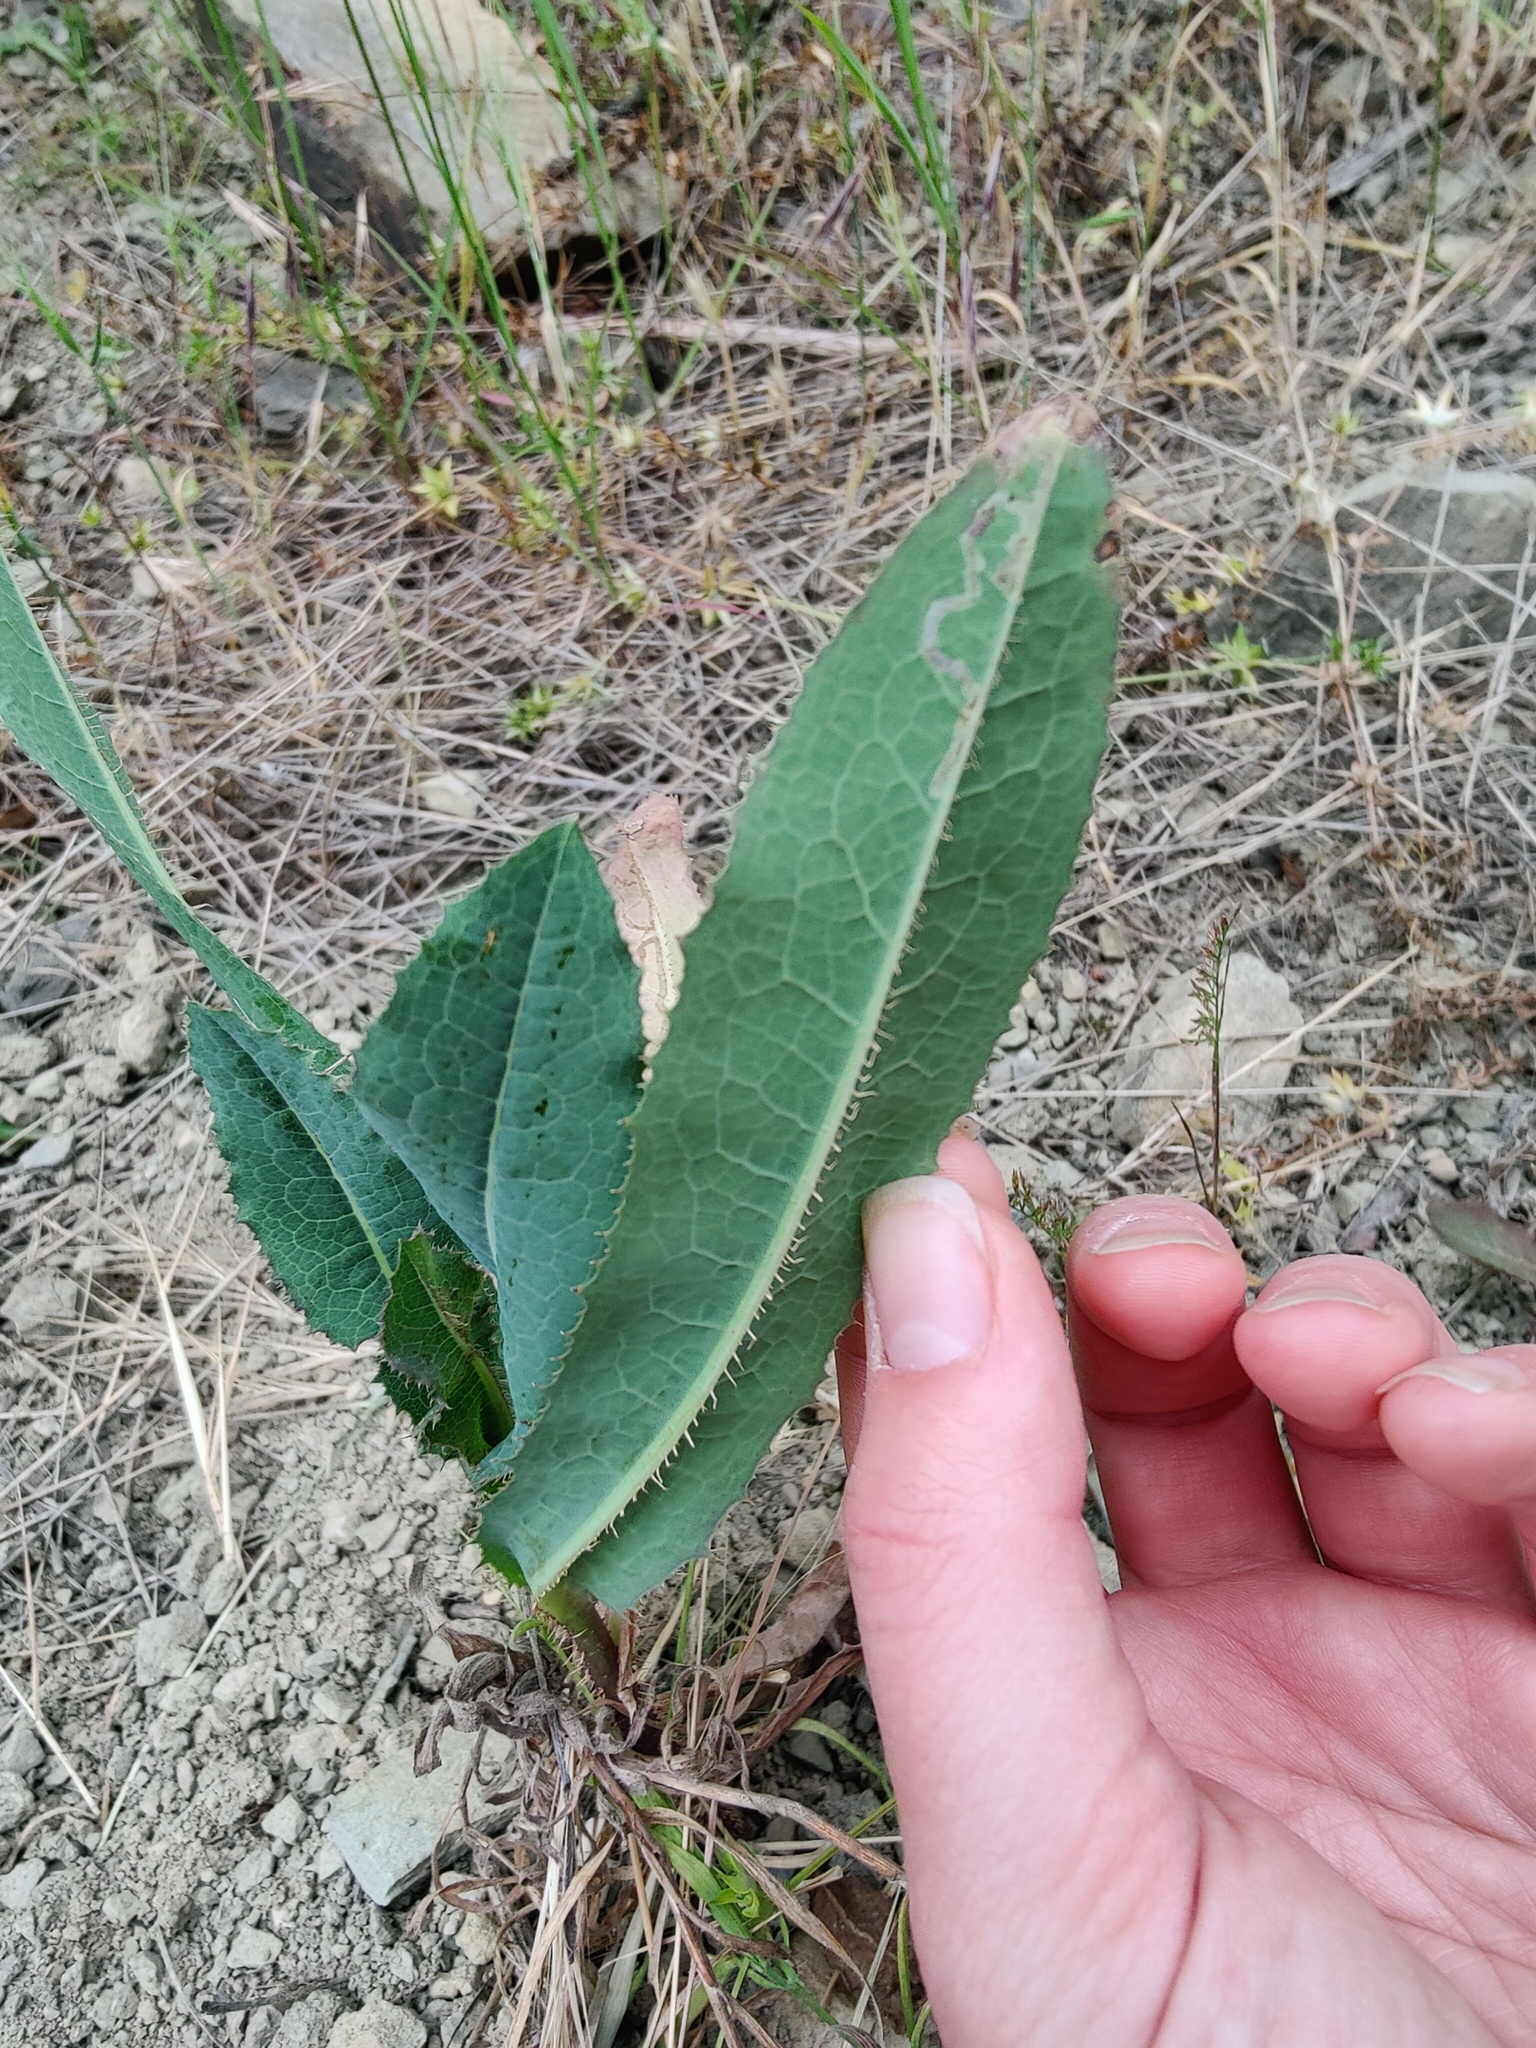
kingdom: Plantae
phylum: Tracheophyta
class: Magnoliopsida
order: Asterales
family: Asteraceae
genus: Lactuca
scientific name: Lactuca serriola
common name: Prickly lettuce
